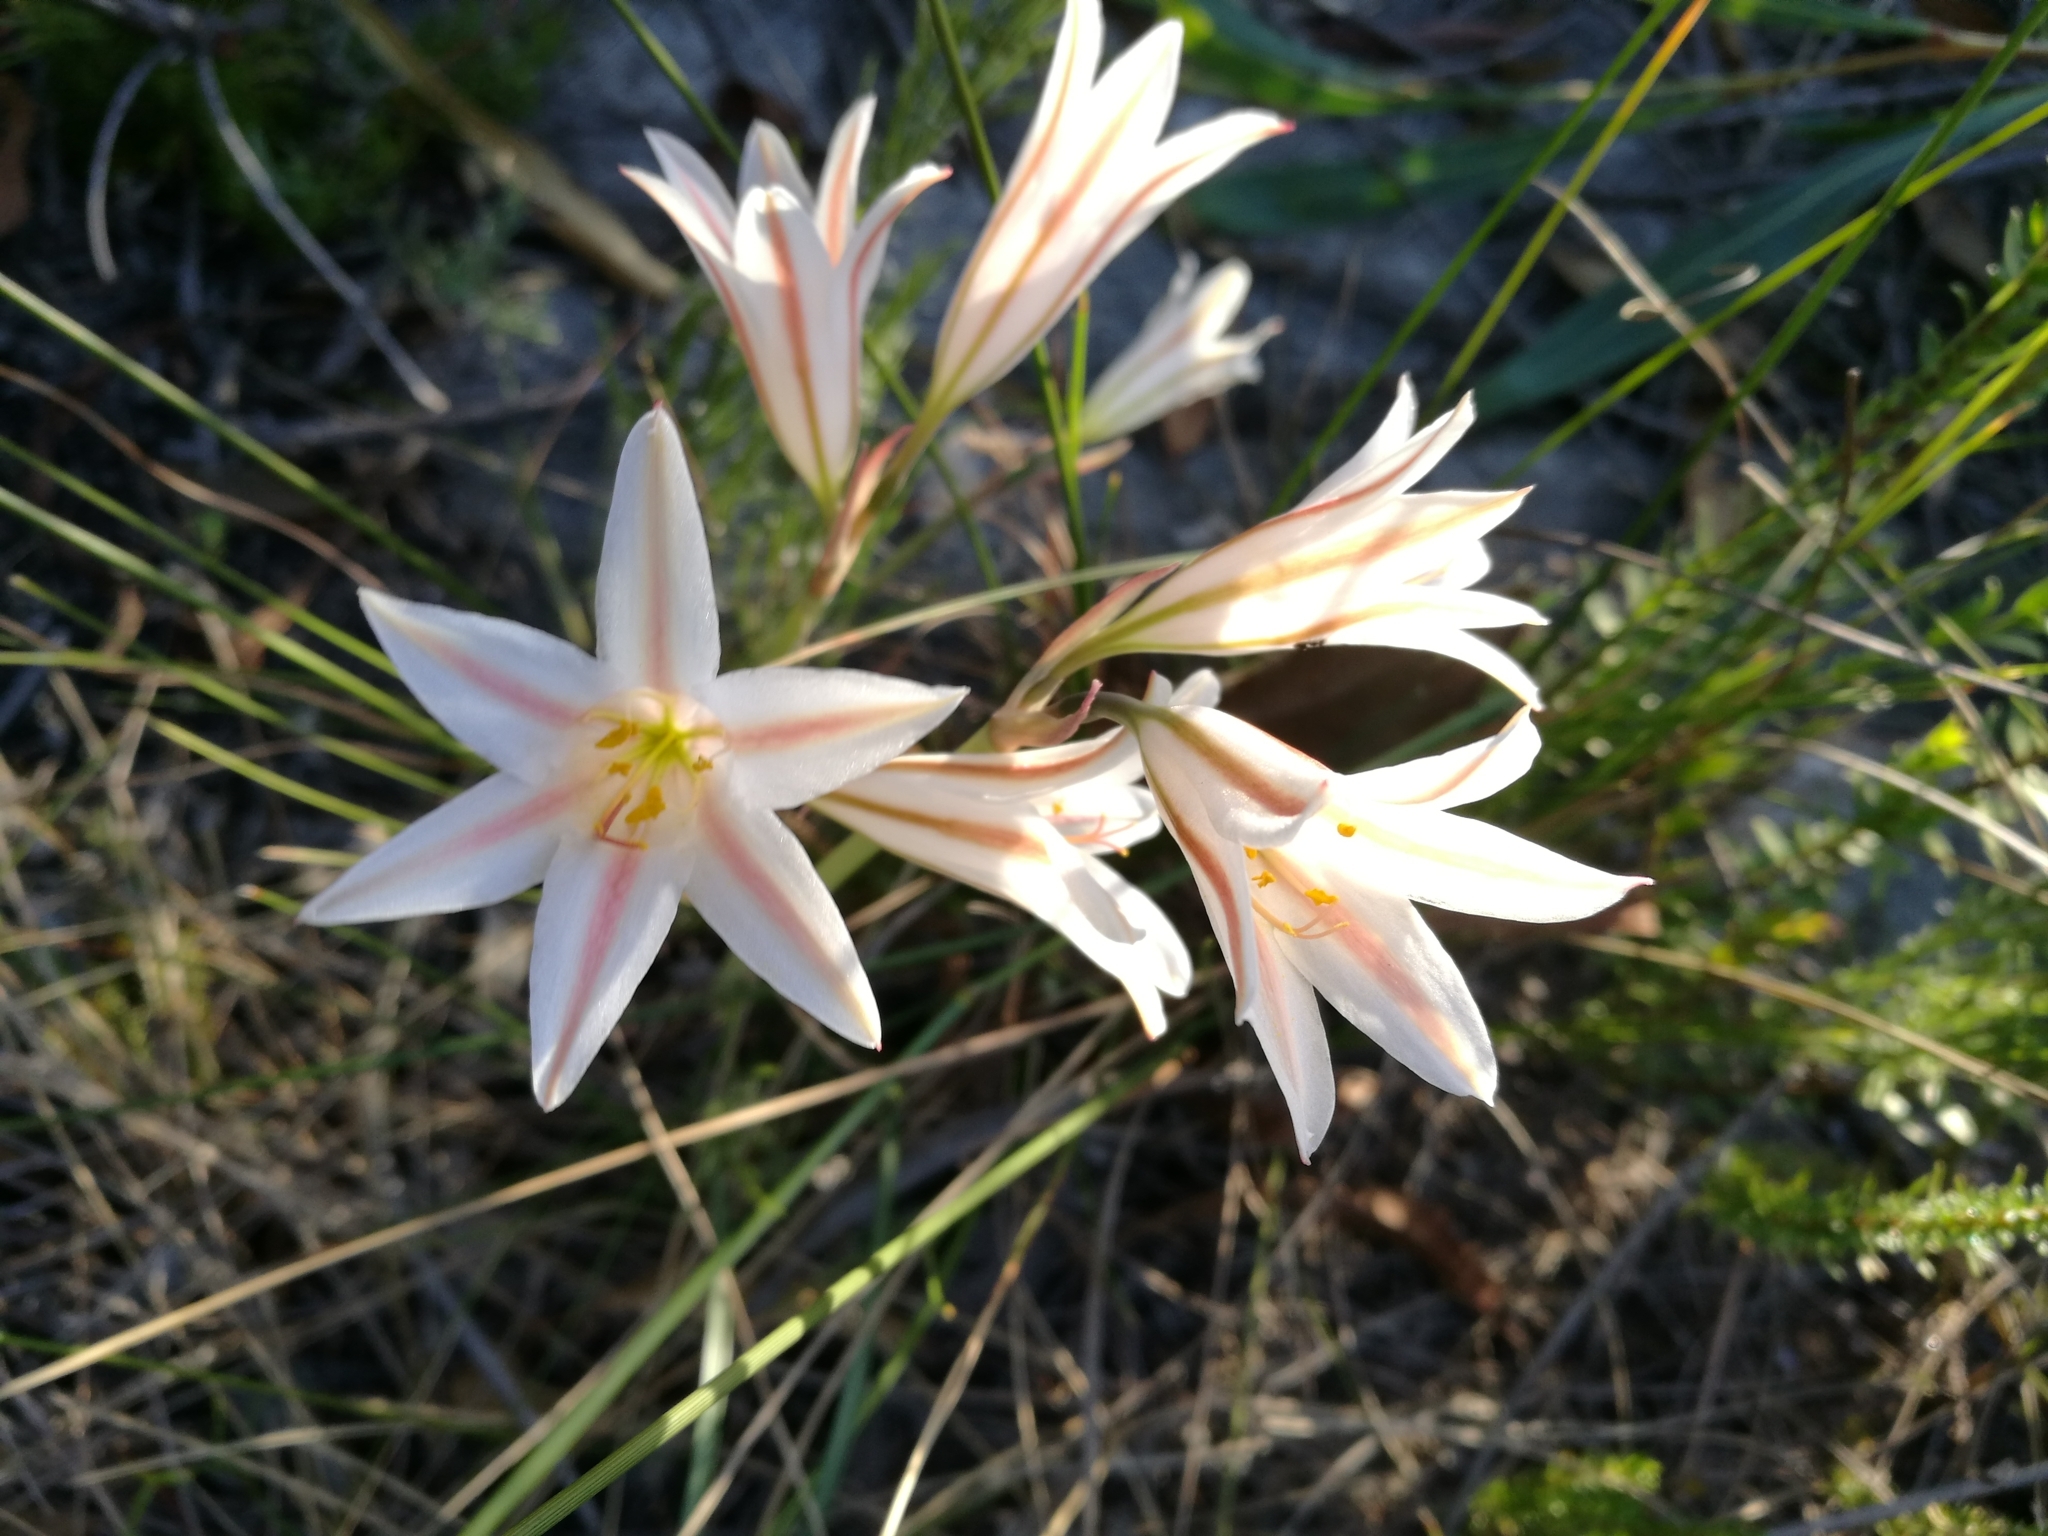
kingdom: Plantae
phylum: Tracheophyta
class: Liliopsida
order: Asparagales
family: Amaryllidaceae
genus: Cyrtanthus
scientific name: Cyrtanthus loddigesianus
